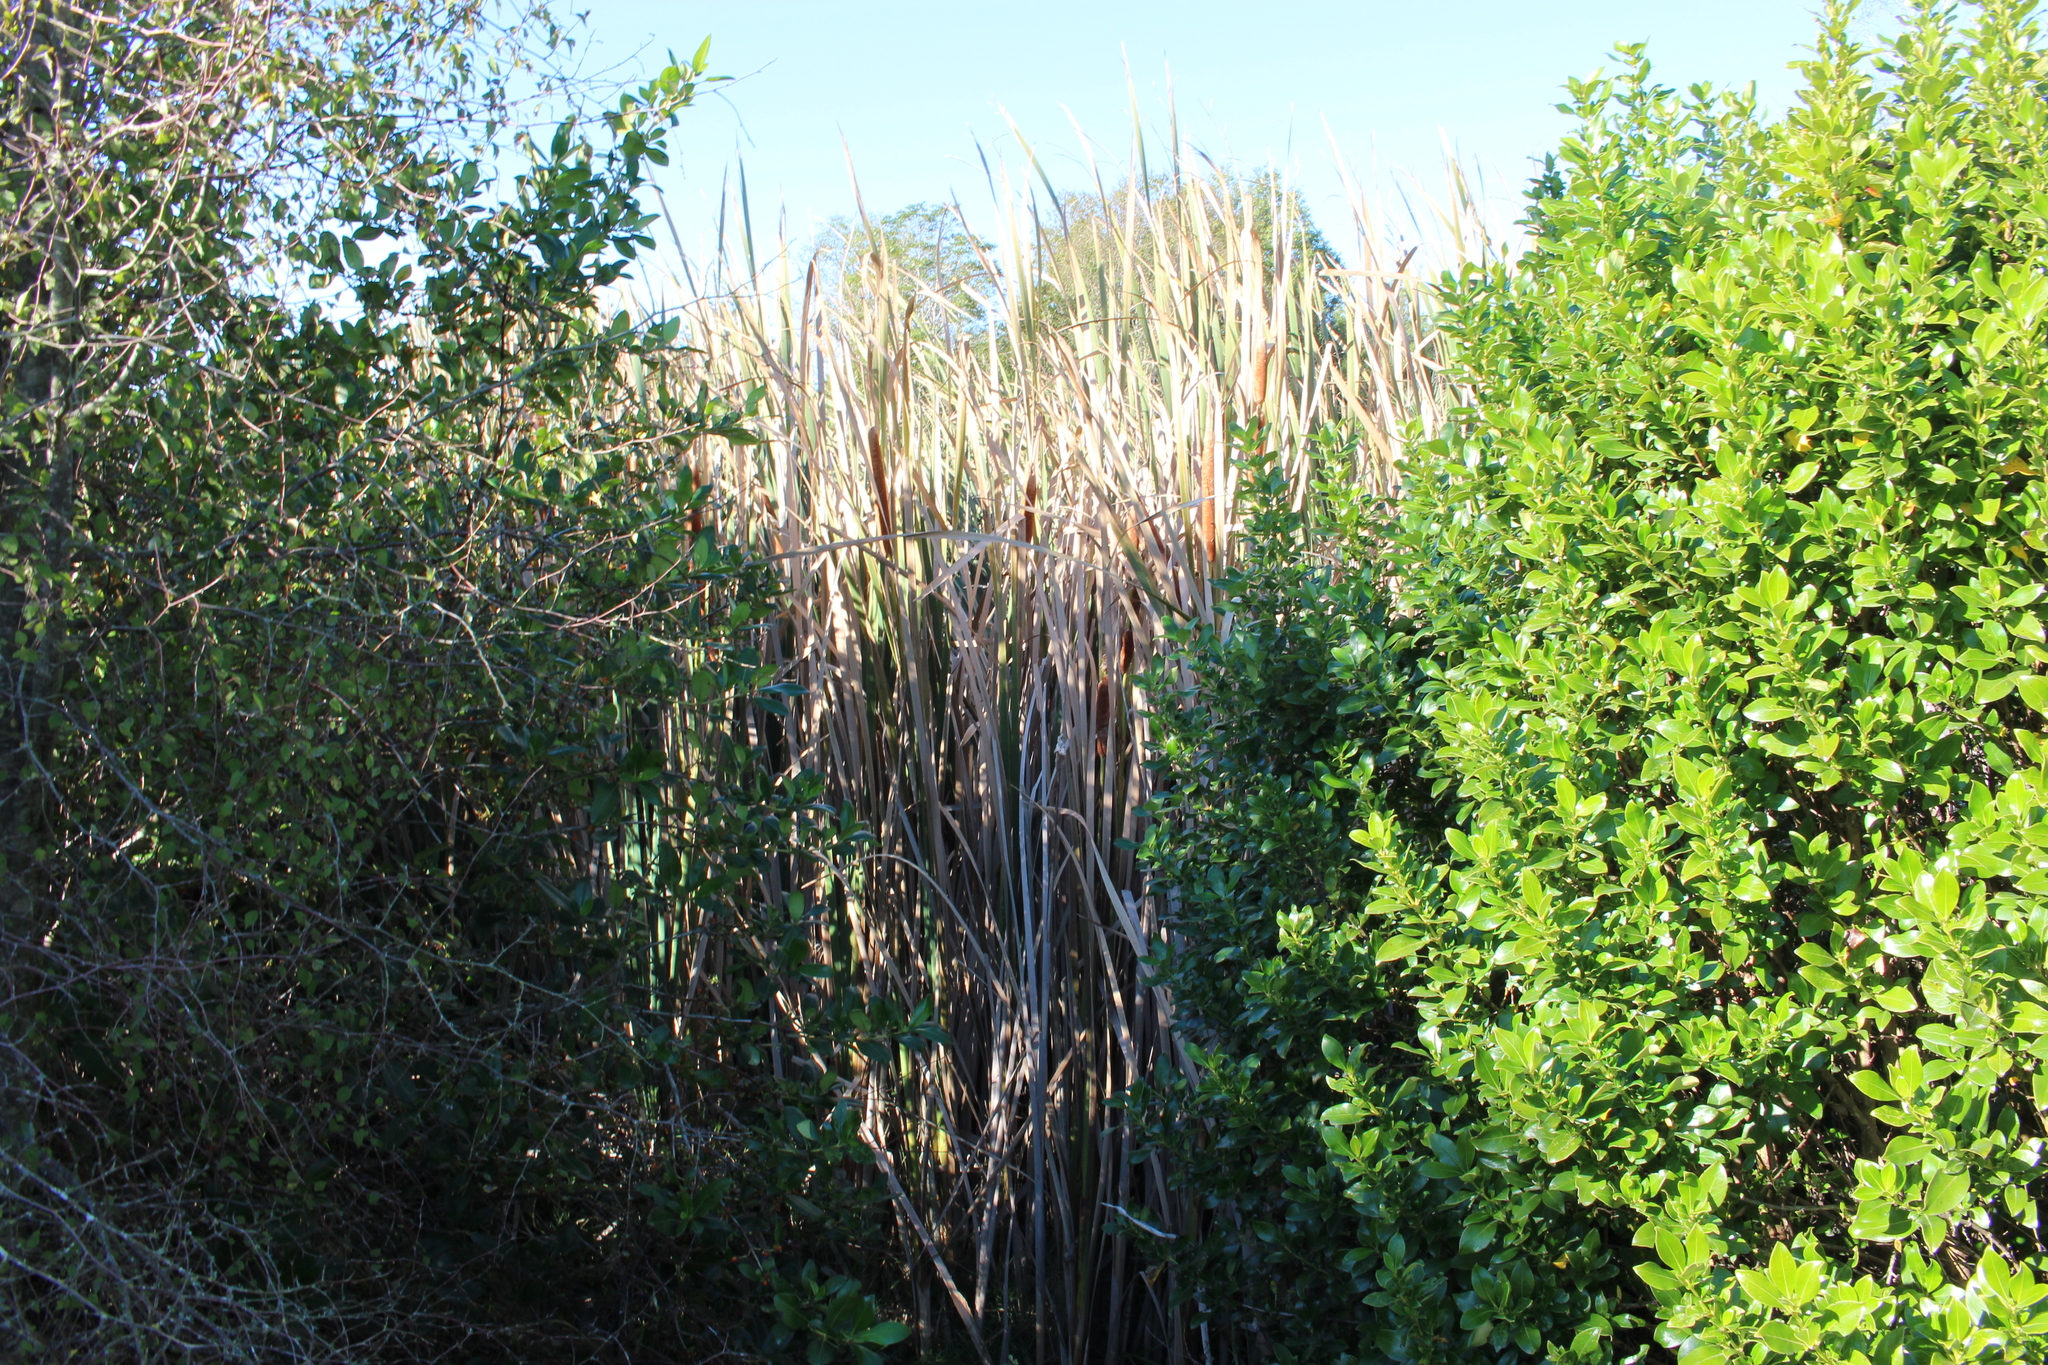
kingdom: Plantae
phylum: Tracheophyta
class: Liliopsida
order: Poales
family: Typhaceae
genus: Typha
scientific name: Typha orientalis
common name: Bullrush
